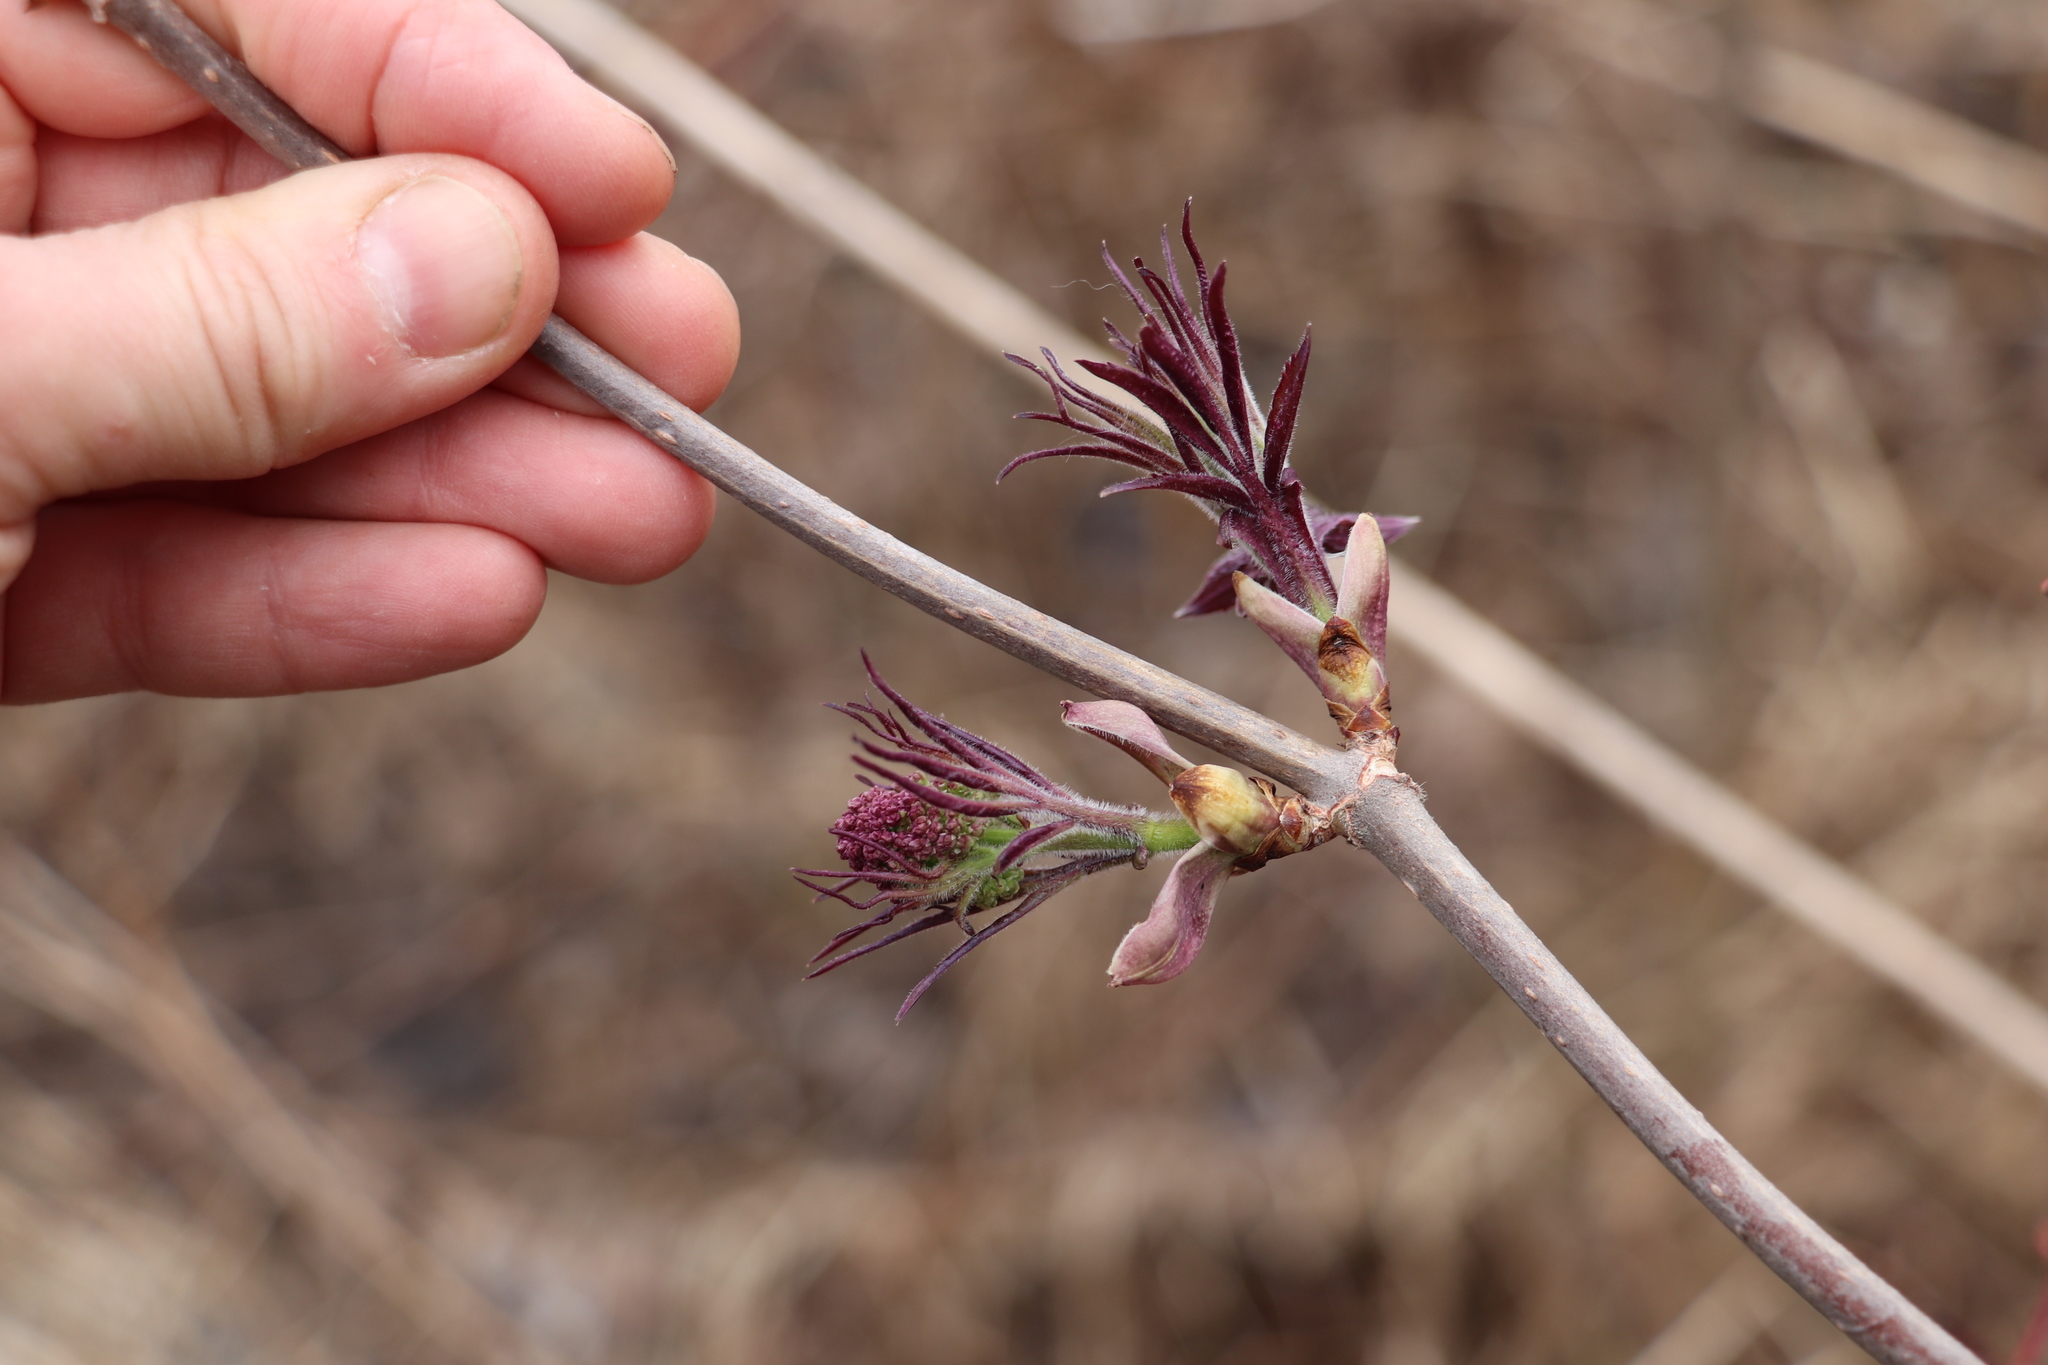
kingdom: Plantae
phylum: Tracheophyta
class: Magnoliopsida
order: Dipsacales
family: Viburnaceae
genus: Sambucus
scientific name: Sambucus sibirica
